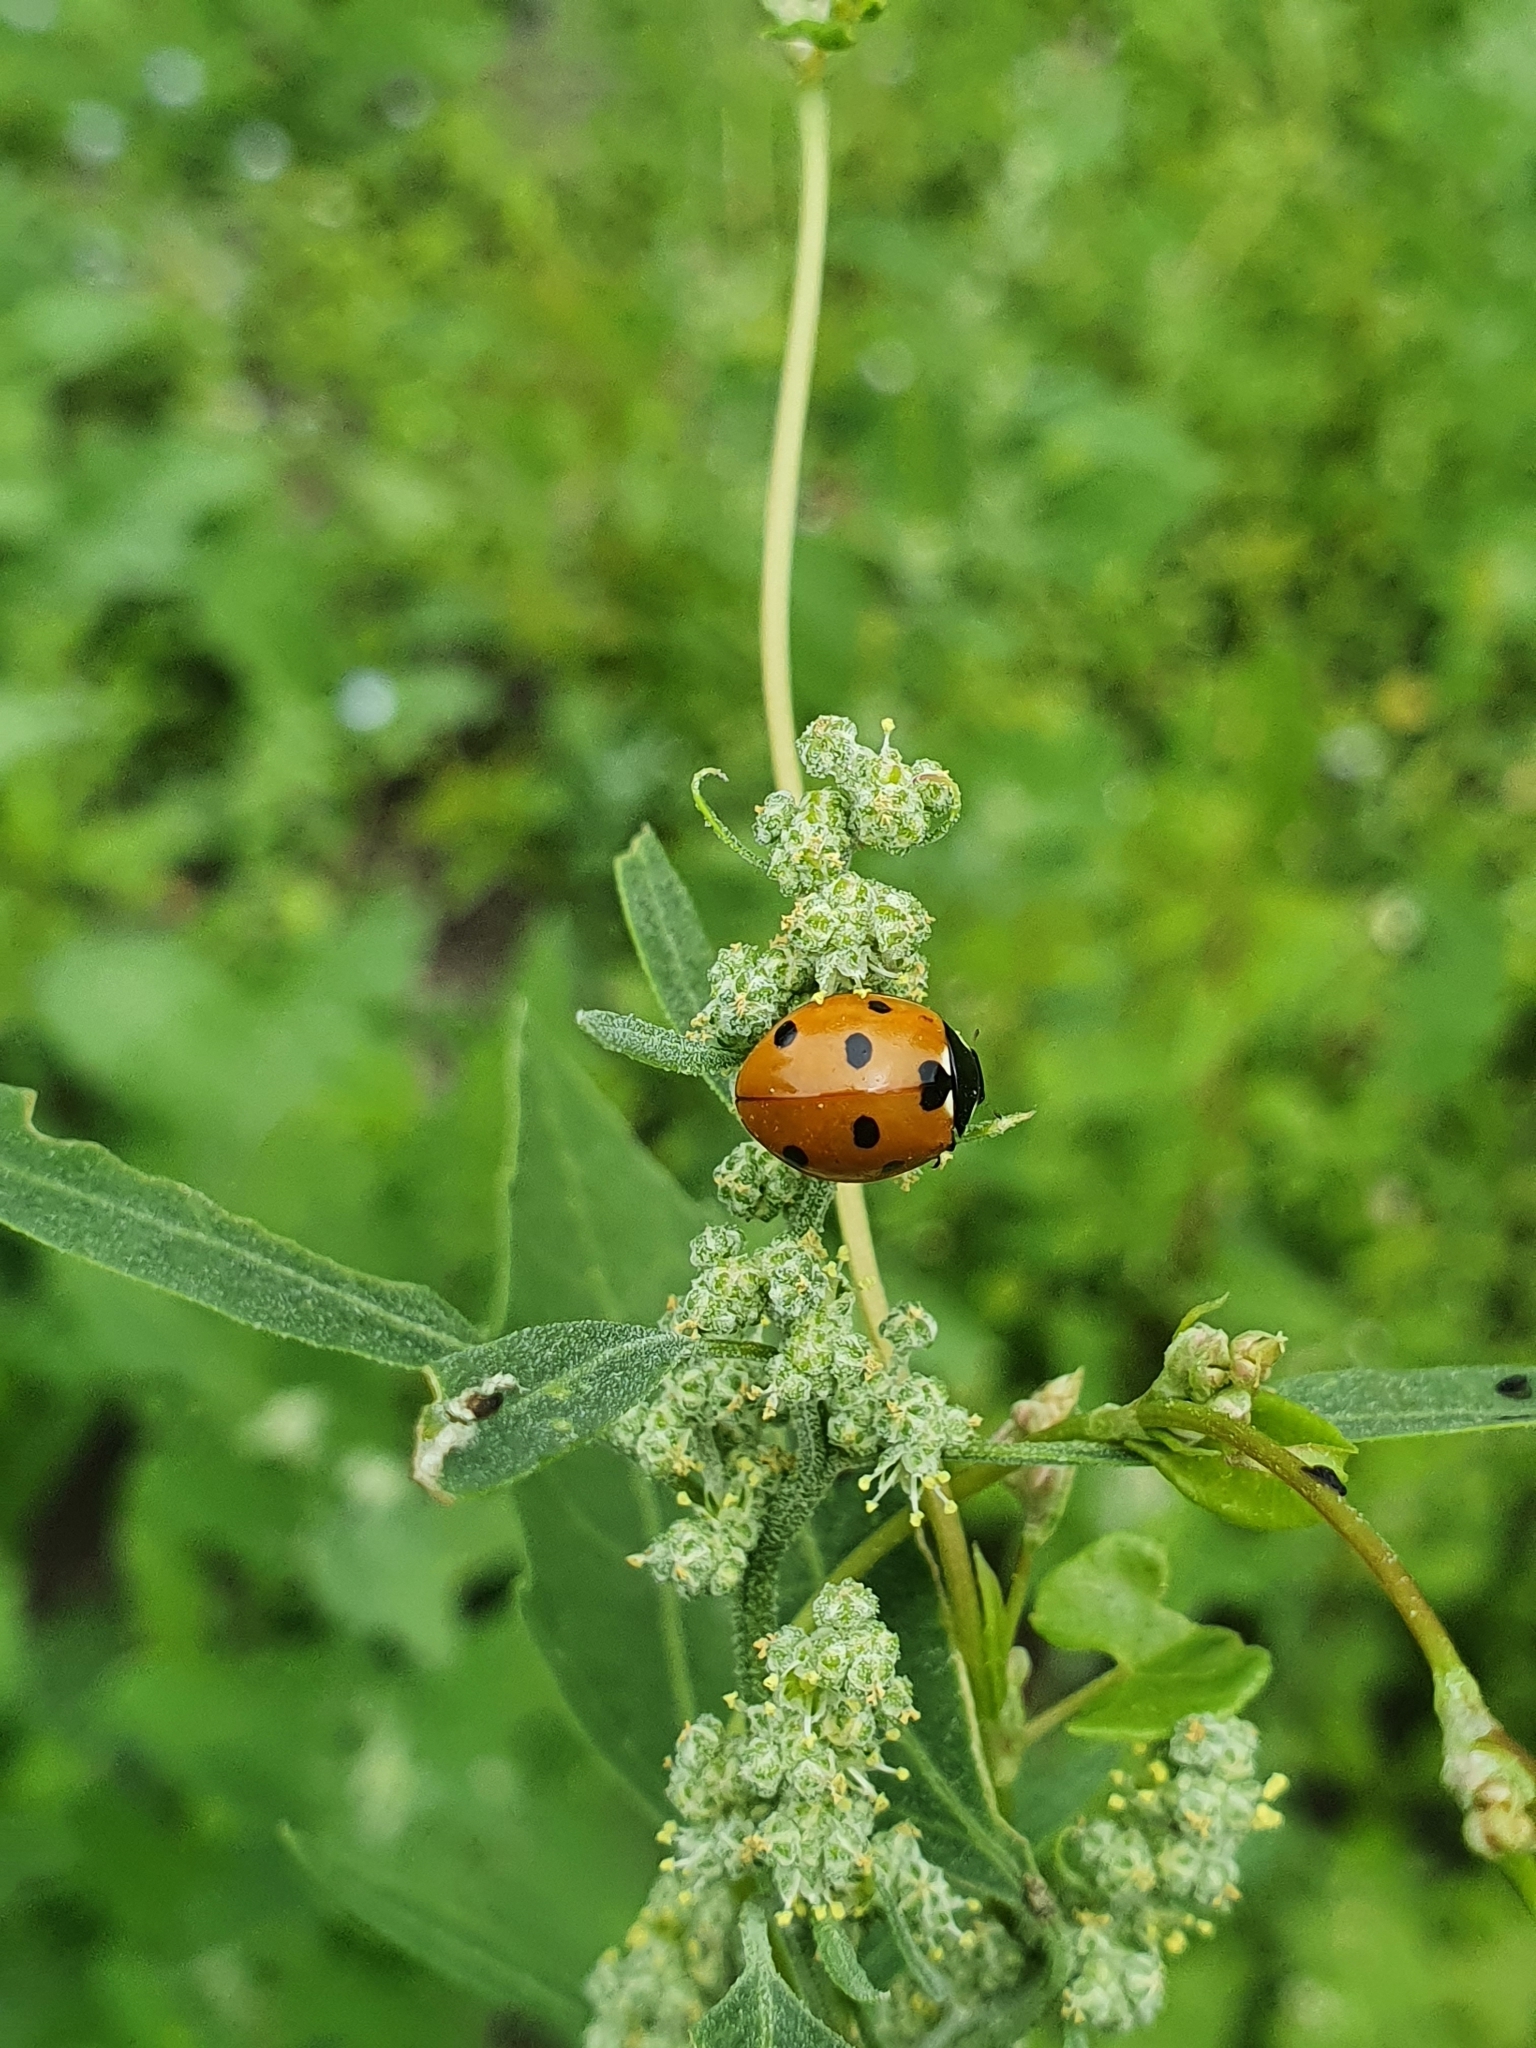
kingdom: Animalia
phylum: Arthropoda
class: Insecta
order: Coleoptera
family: Coccinellidae
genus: Coccinella
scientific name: Coccinella septempunctata
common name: Sevenspotted lady beetle
